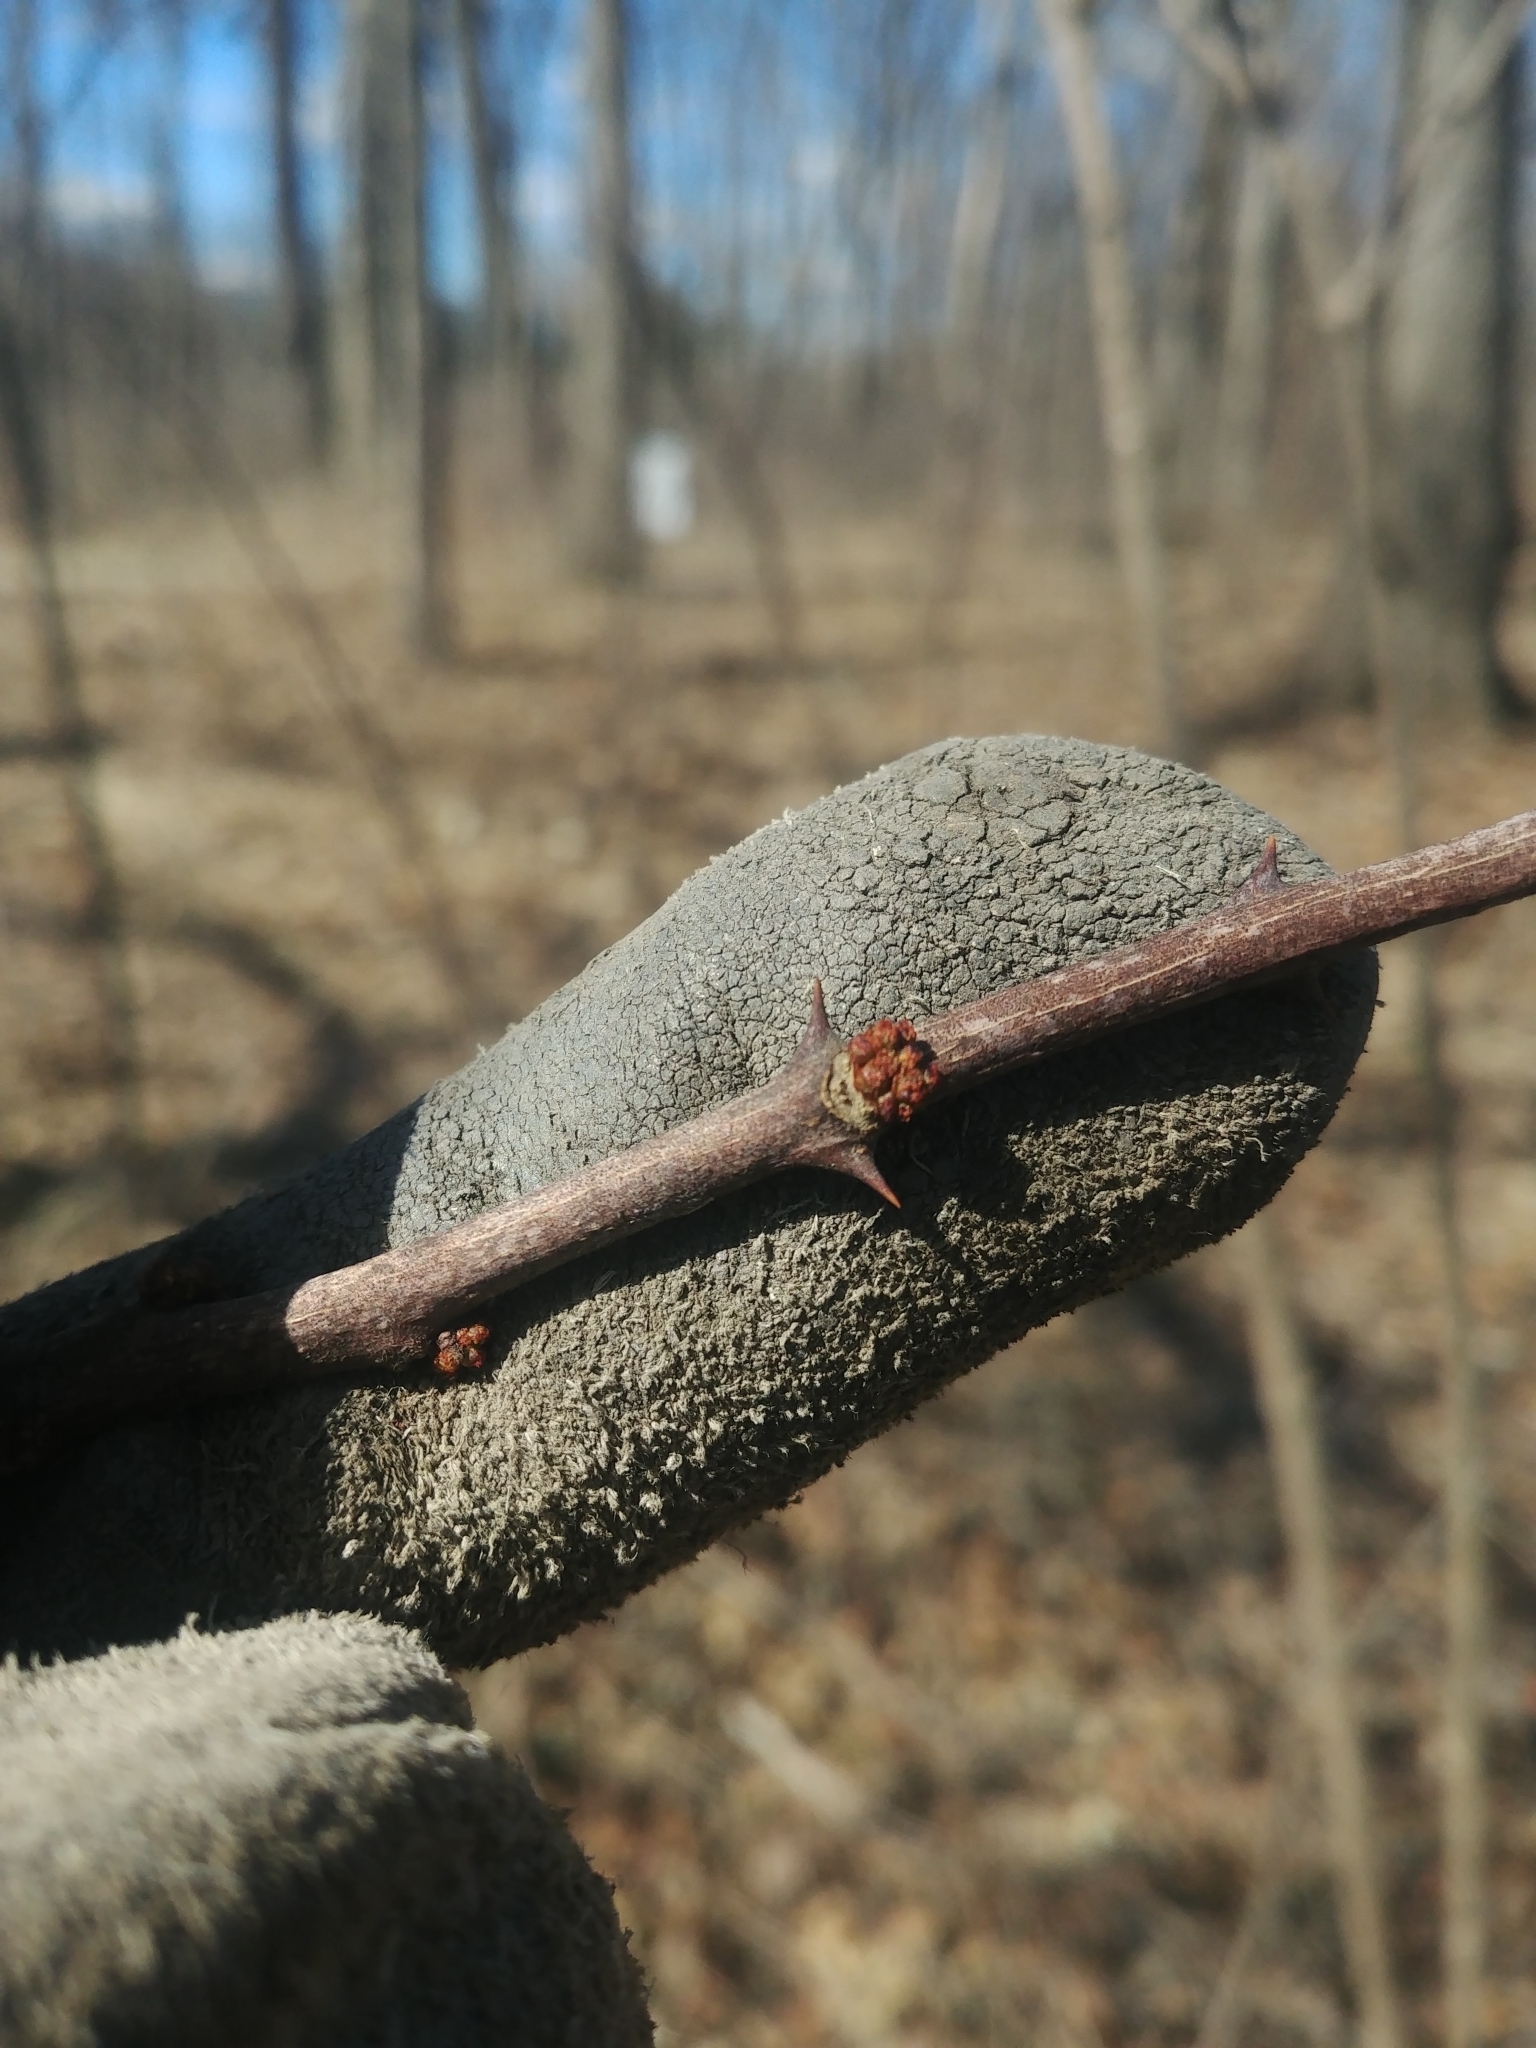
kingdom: Plantae
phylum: Tracheophyta
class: Magnoliopsida
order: Sapindales
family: Rutaceae
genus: Zanthoxylum
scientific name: Zanthoxylum americanum
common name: Northern prickly-ash
